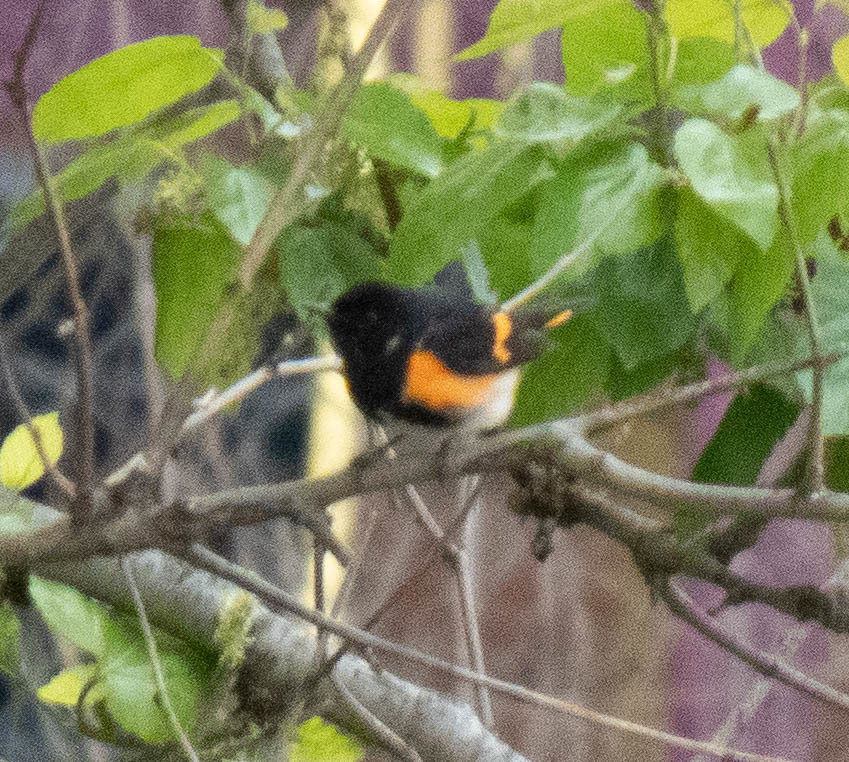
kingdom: Animalia
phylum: Chordata
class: Aves
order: Passeriformes
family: Parulidae
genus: Setophaga
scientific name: Setophaga ruticilla
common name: American redstart
